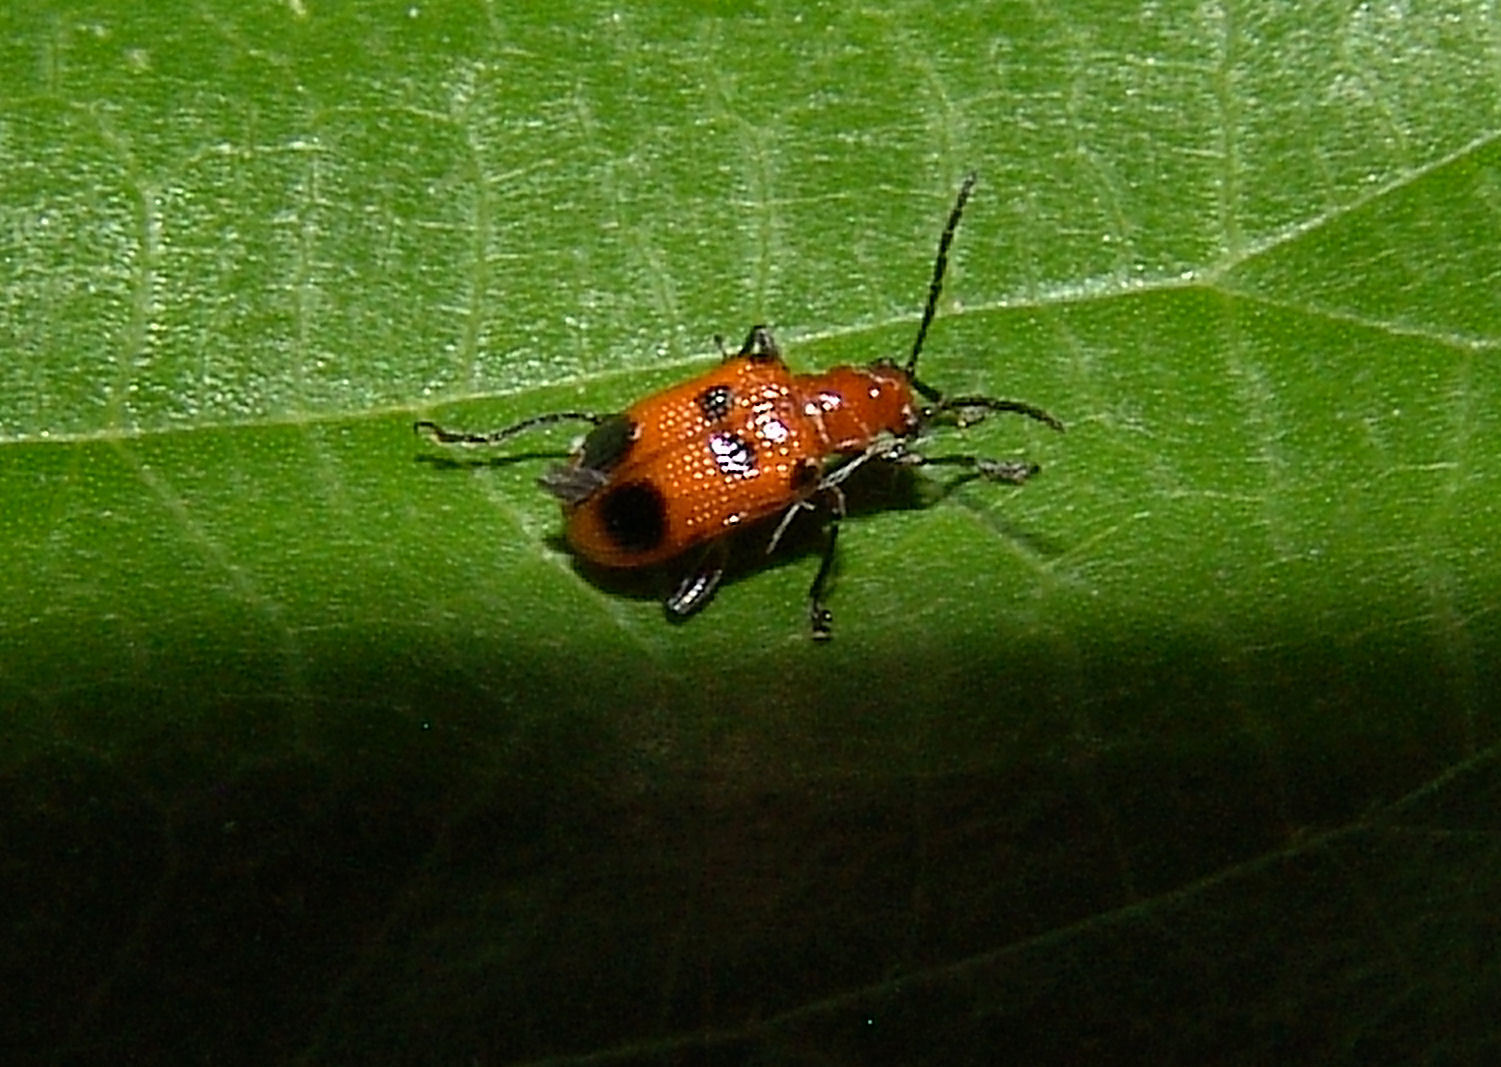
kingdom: Animalia
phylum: Arthropoda
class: Insecta
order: Coleoptera
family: Chrysomelidae
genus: Neolema
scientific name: Neolema sexpunctata
